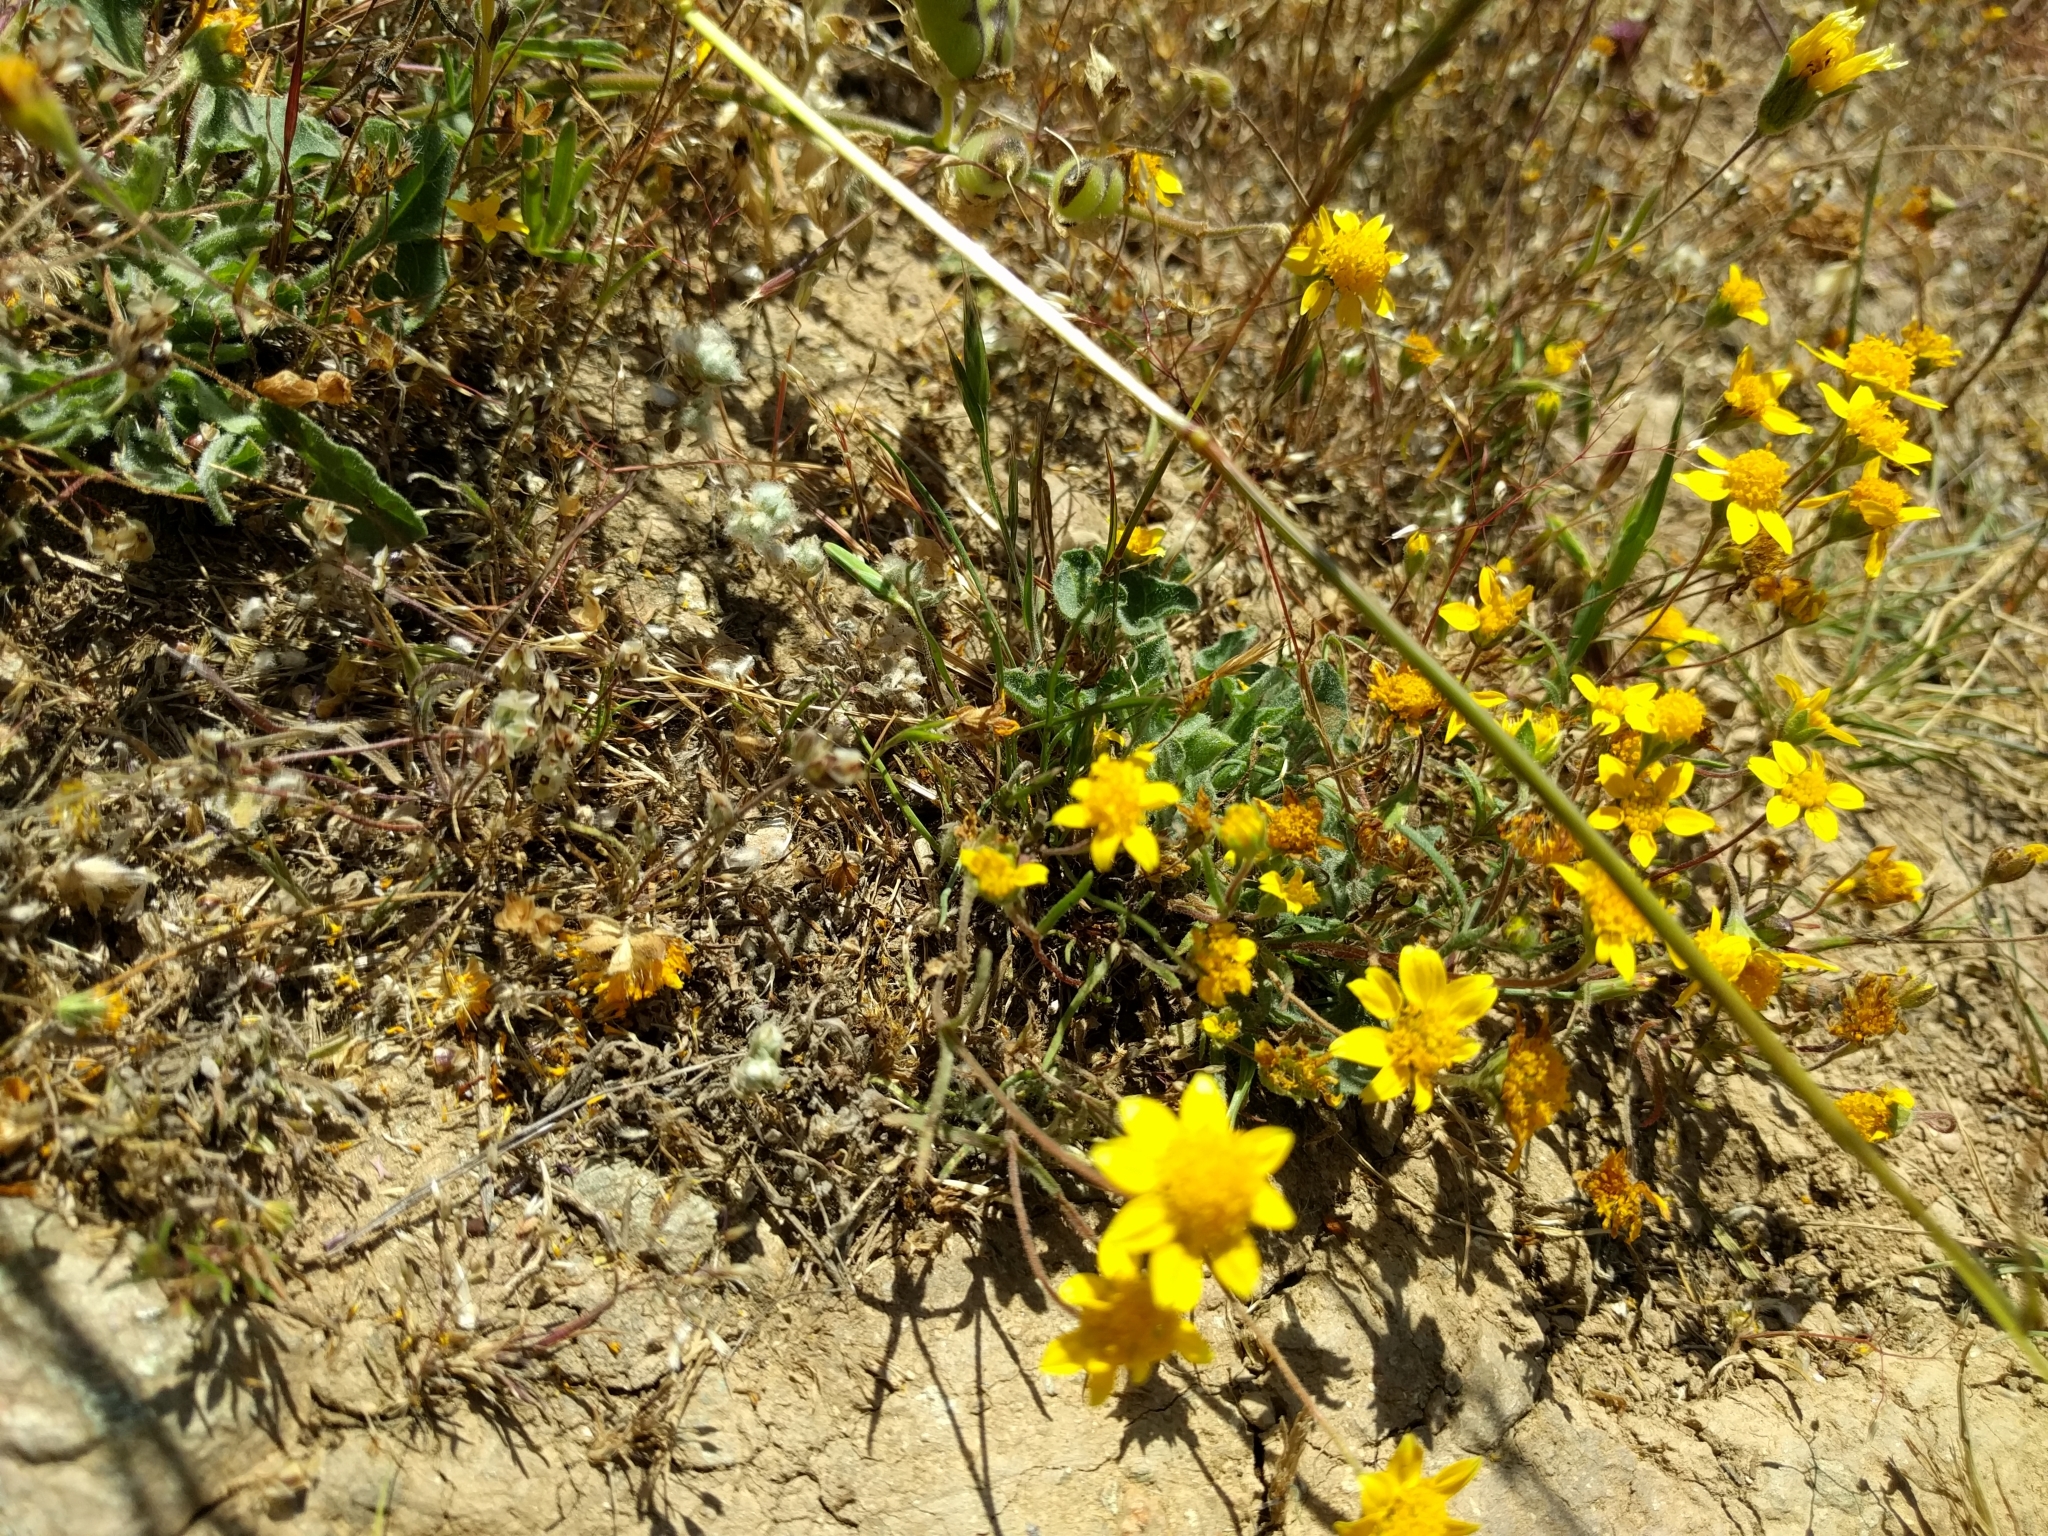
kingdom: Plantae
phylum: Tracheophyta
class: Magnoliopsida
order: Asterales
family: Asteraceae
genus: Lasthenia
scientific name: Lasthenia californica
